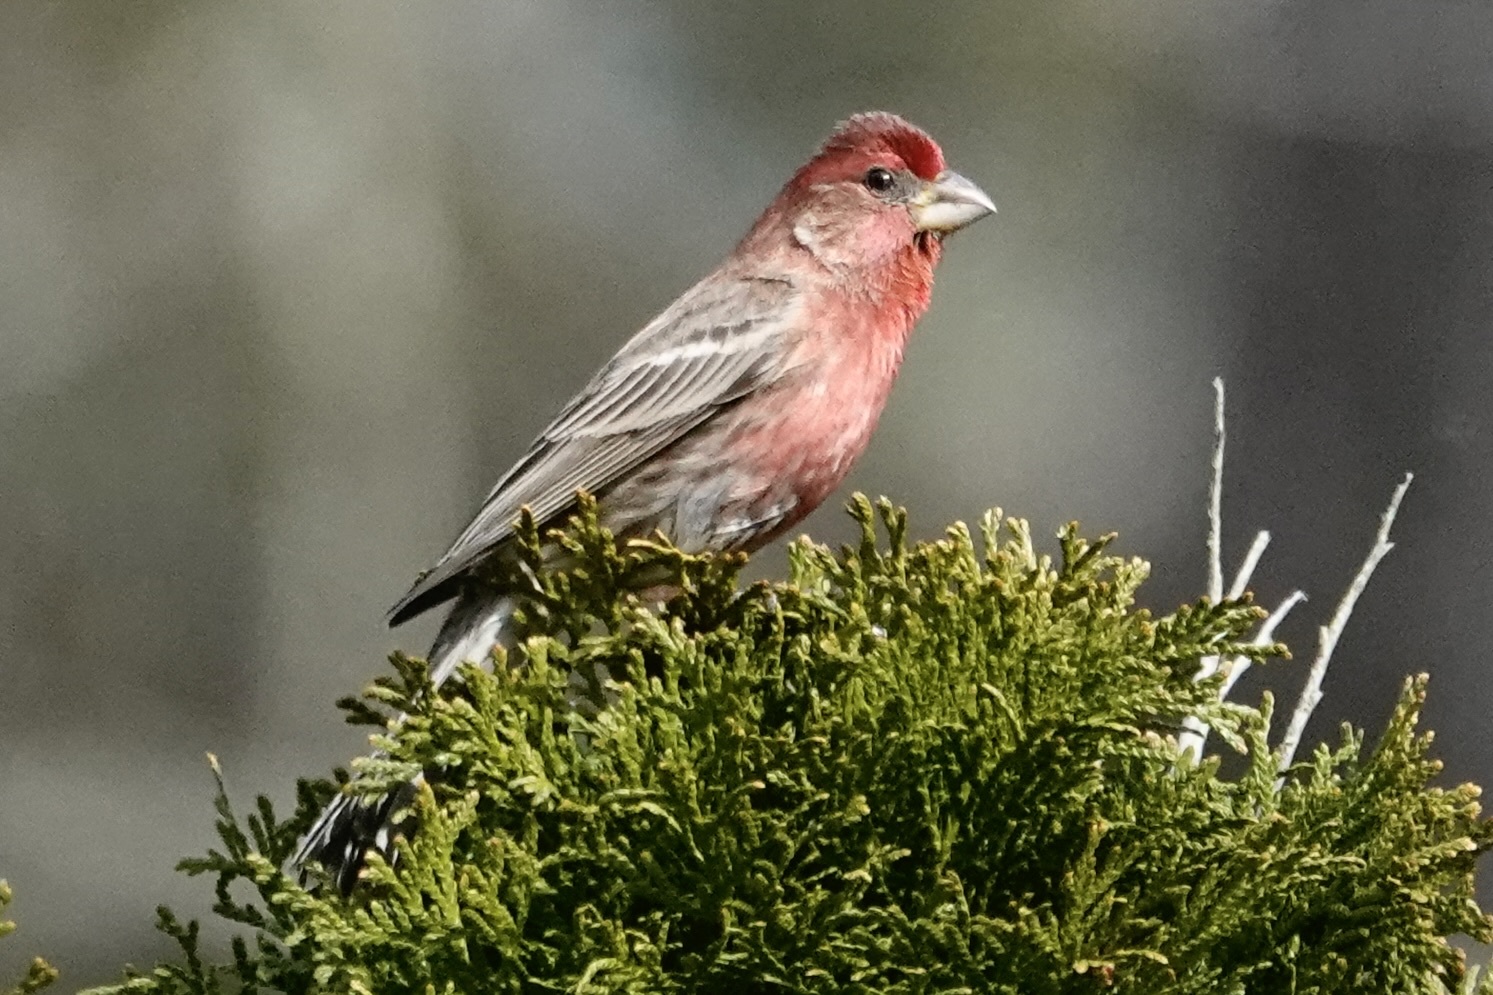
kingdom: Animalia
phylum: Chordata
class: Aves
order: Passeriformes
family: Fringillidae
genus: Haemorhous
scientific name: Haemorhous mexicanus
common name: House finch
